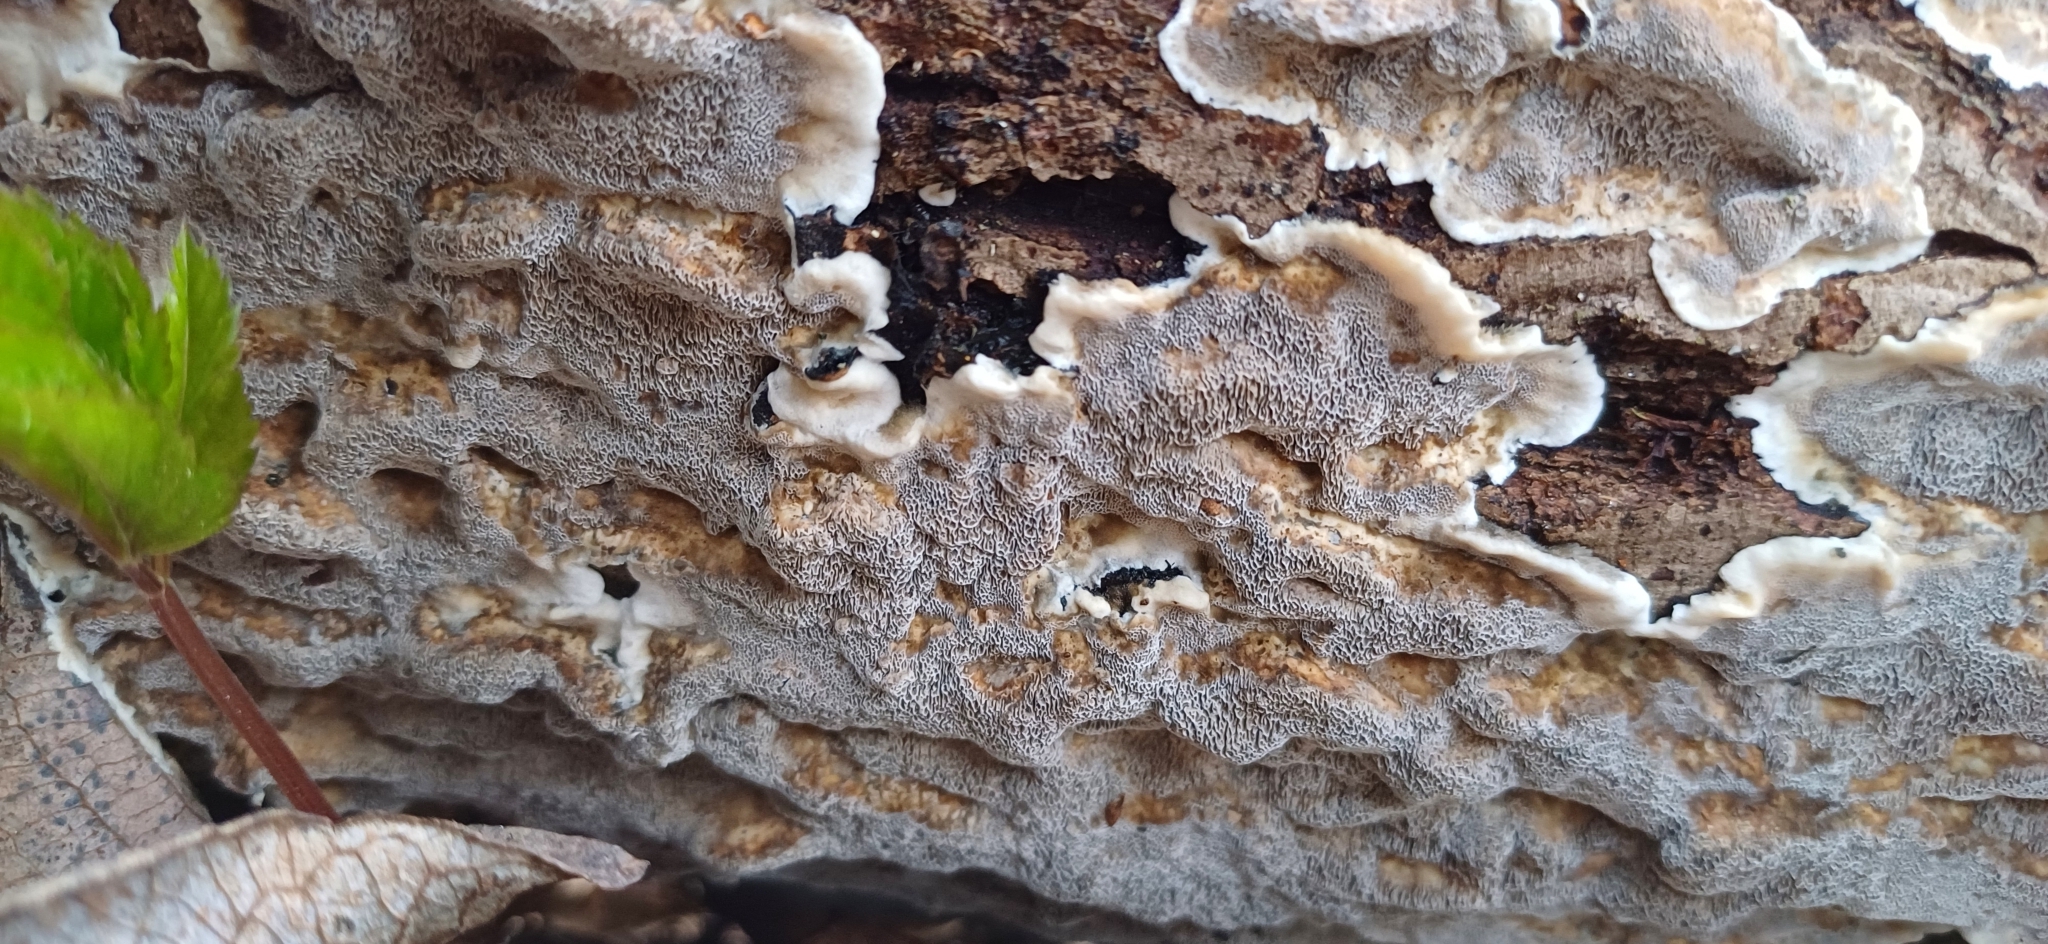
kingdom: Fungi
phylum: Basidiomycota
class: Agaricomycetes
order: Polyporales
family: Phanerochaetaceae
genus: Bjerkandera
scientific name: Bjerkandera adusta
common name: Smoky bracket
